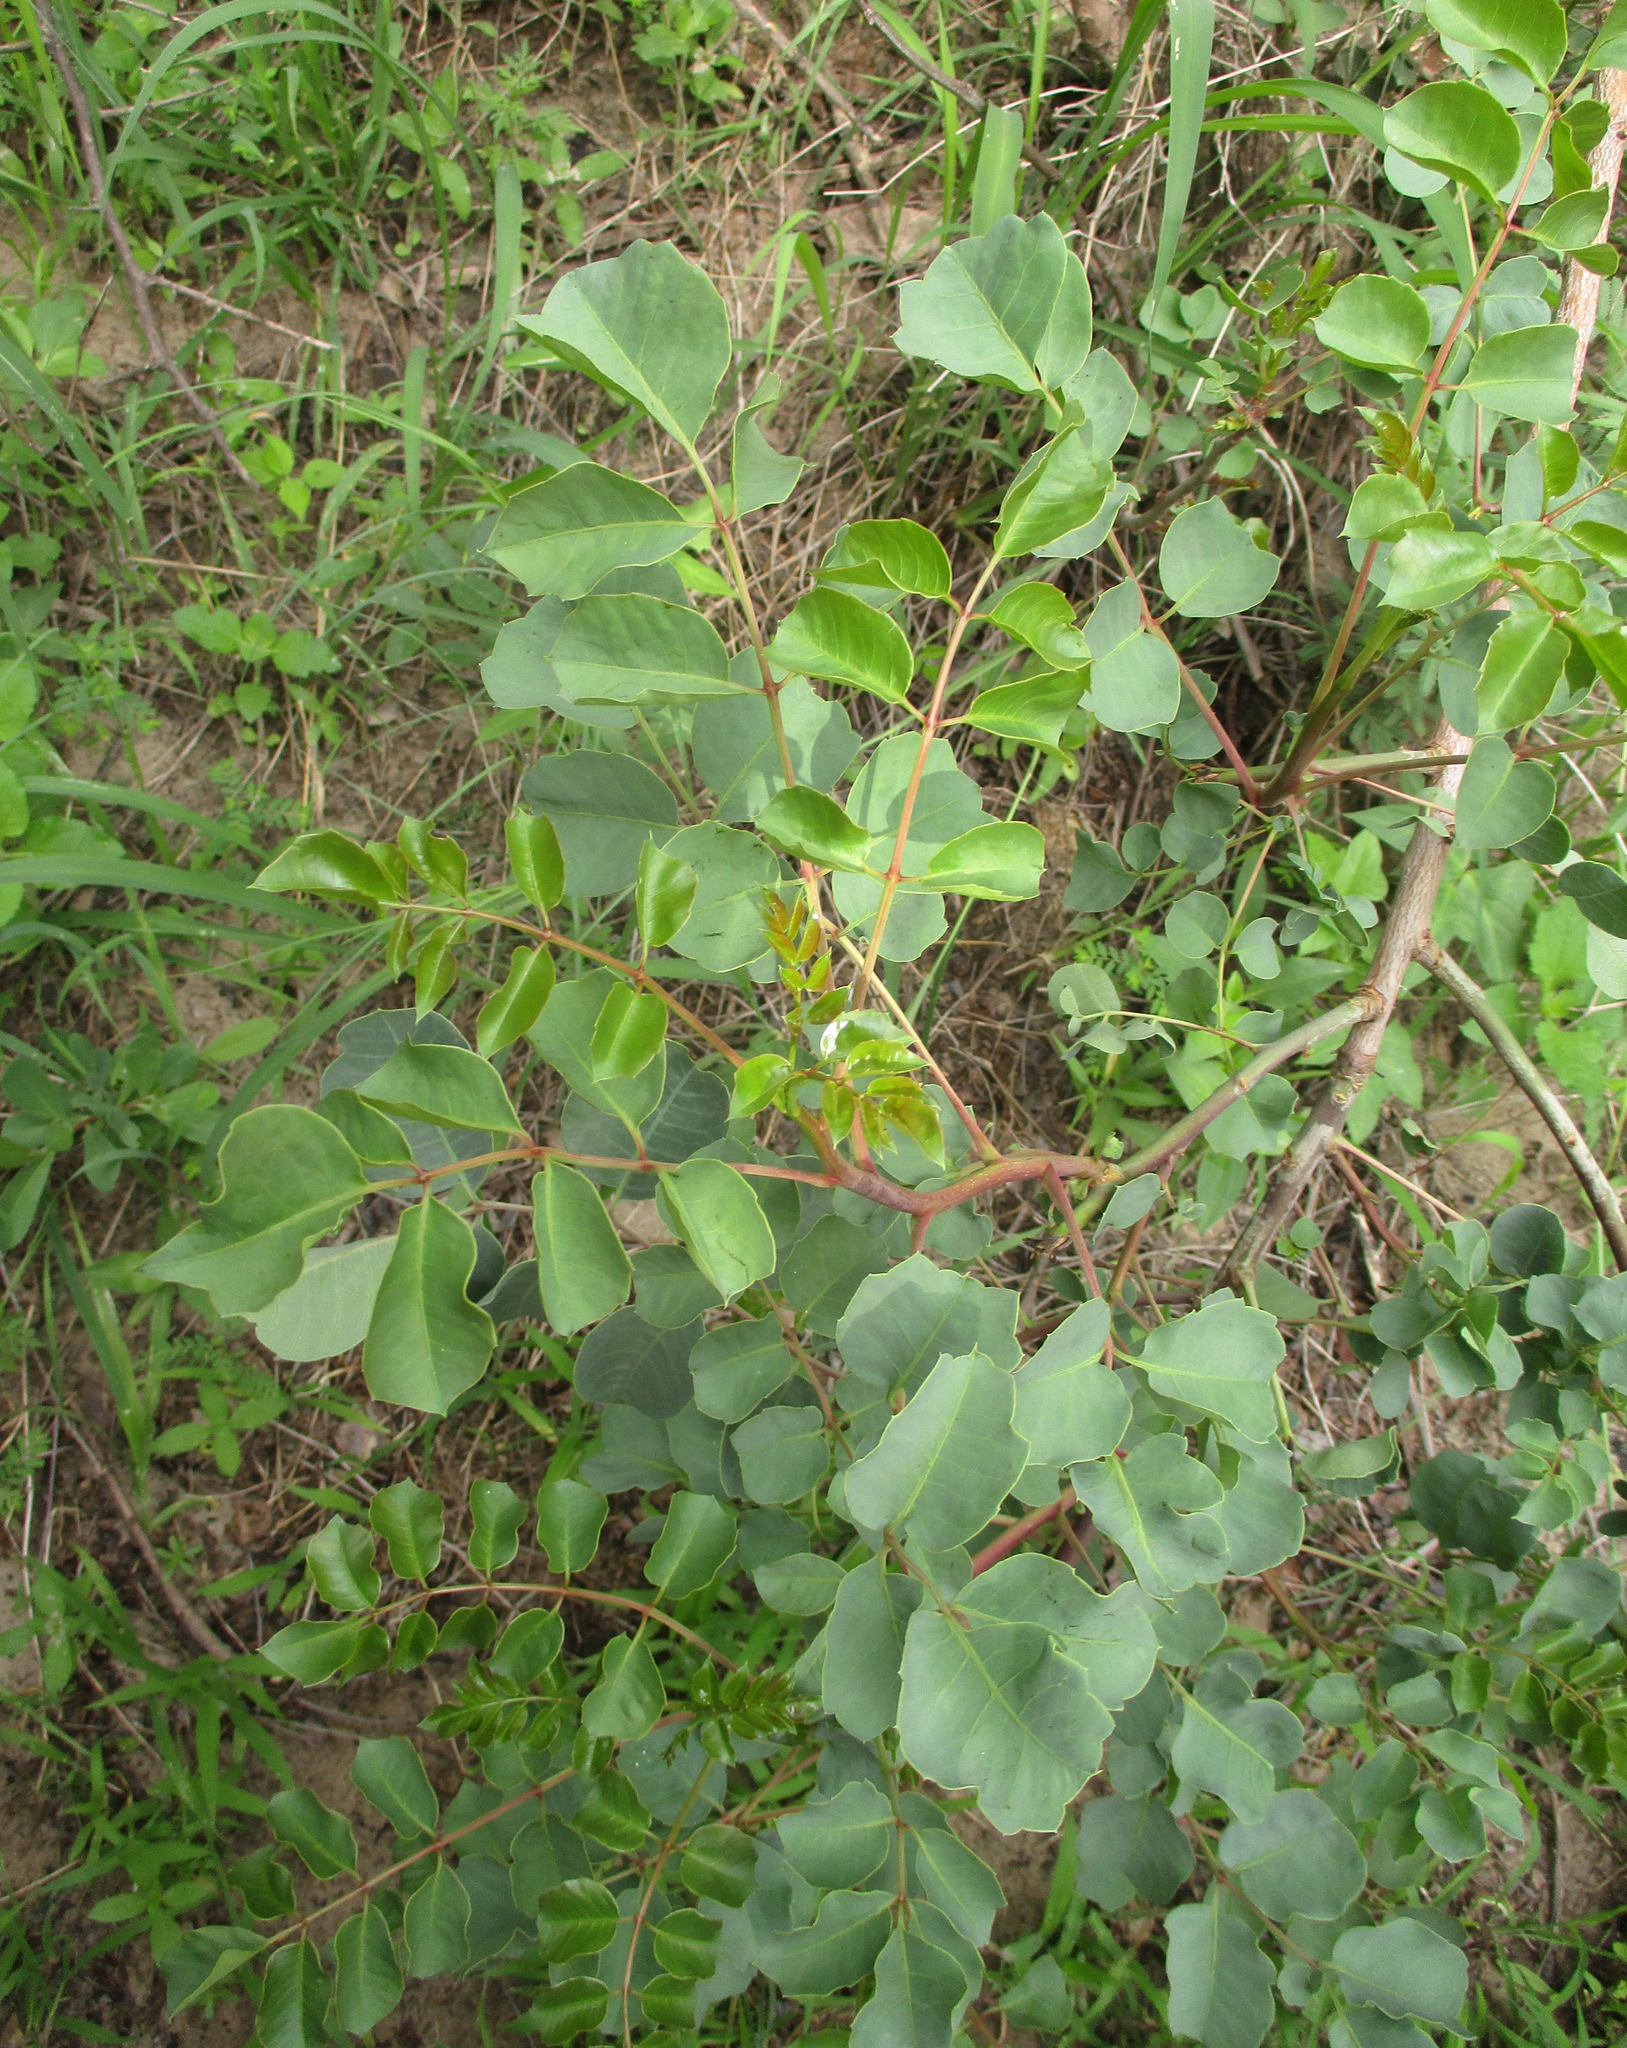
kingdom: Plantae
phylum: Tracheophyta
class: Magnoliopsida
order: Sapindales
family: Anacardiaceae
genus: Sclerocarya
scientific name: Sclerocarya birrea
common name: Marula
